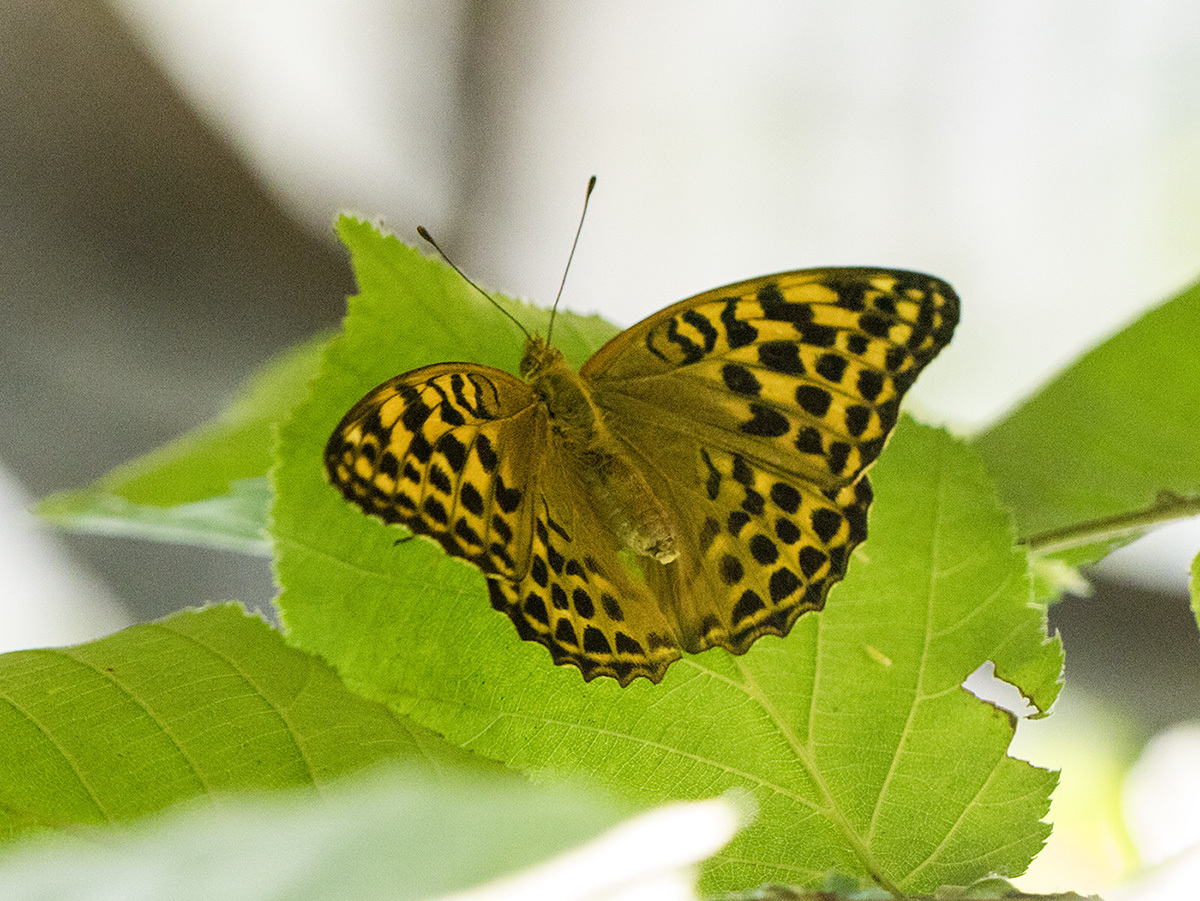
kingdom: Animalia
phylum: Arthropoda
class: Insecta
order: Lepidoptera
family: Nymphalidae
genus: Argynnis
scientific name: Argynnis paphia
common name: Silver-washed fritillary
